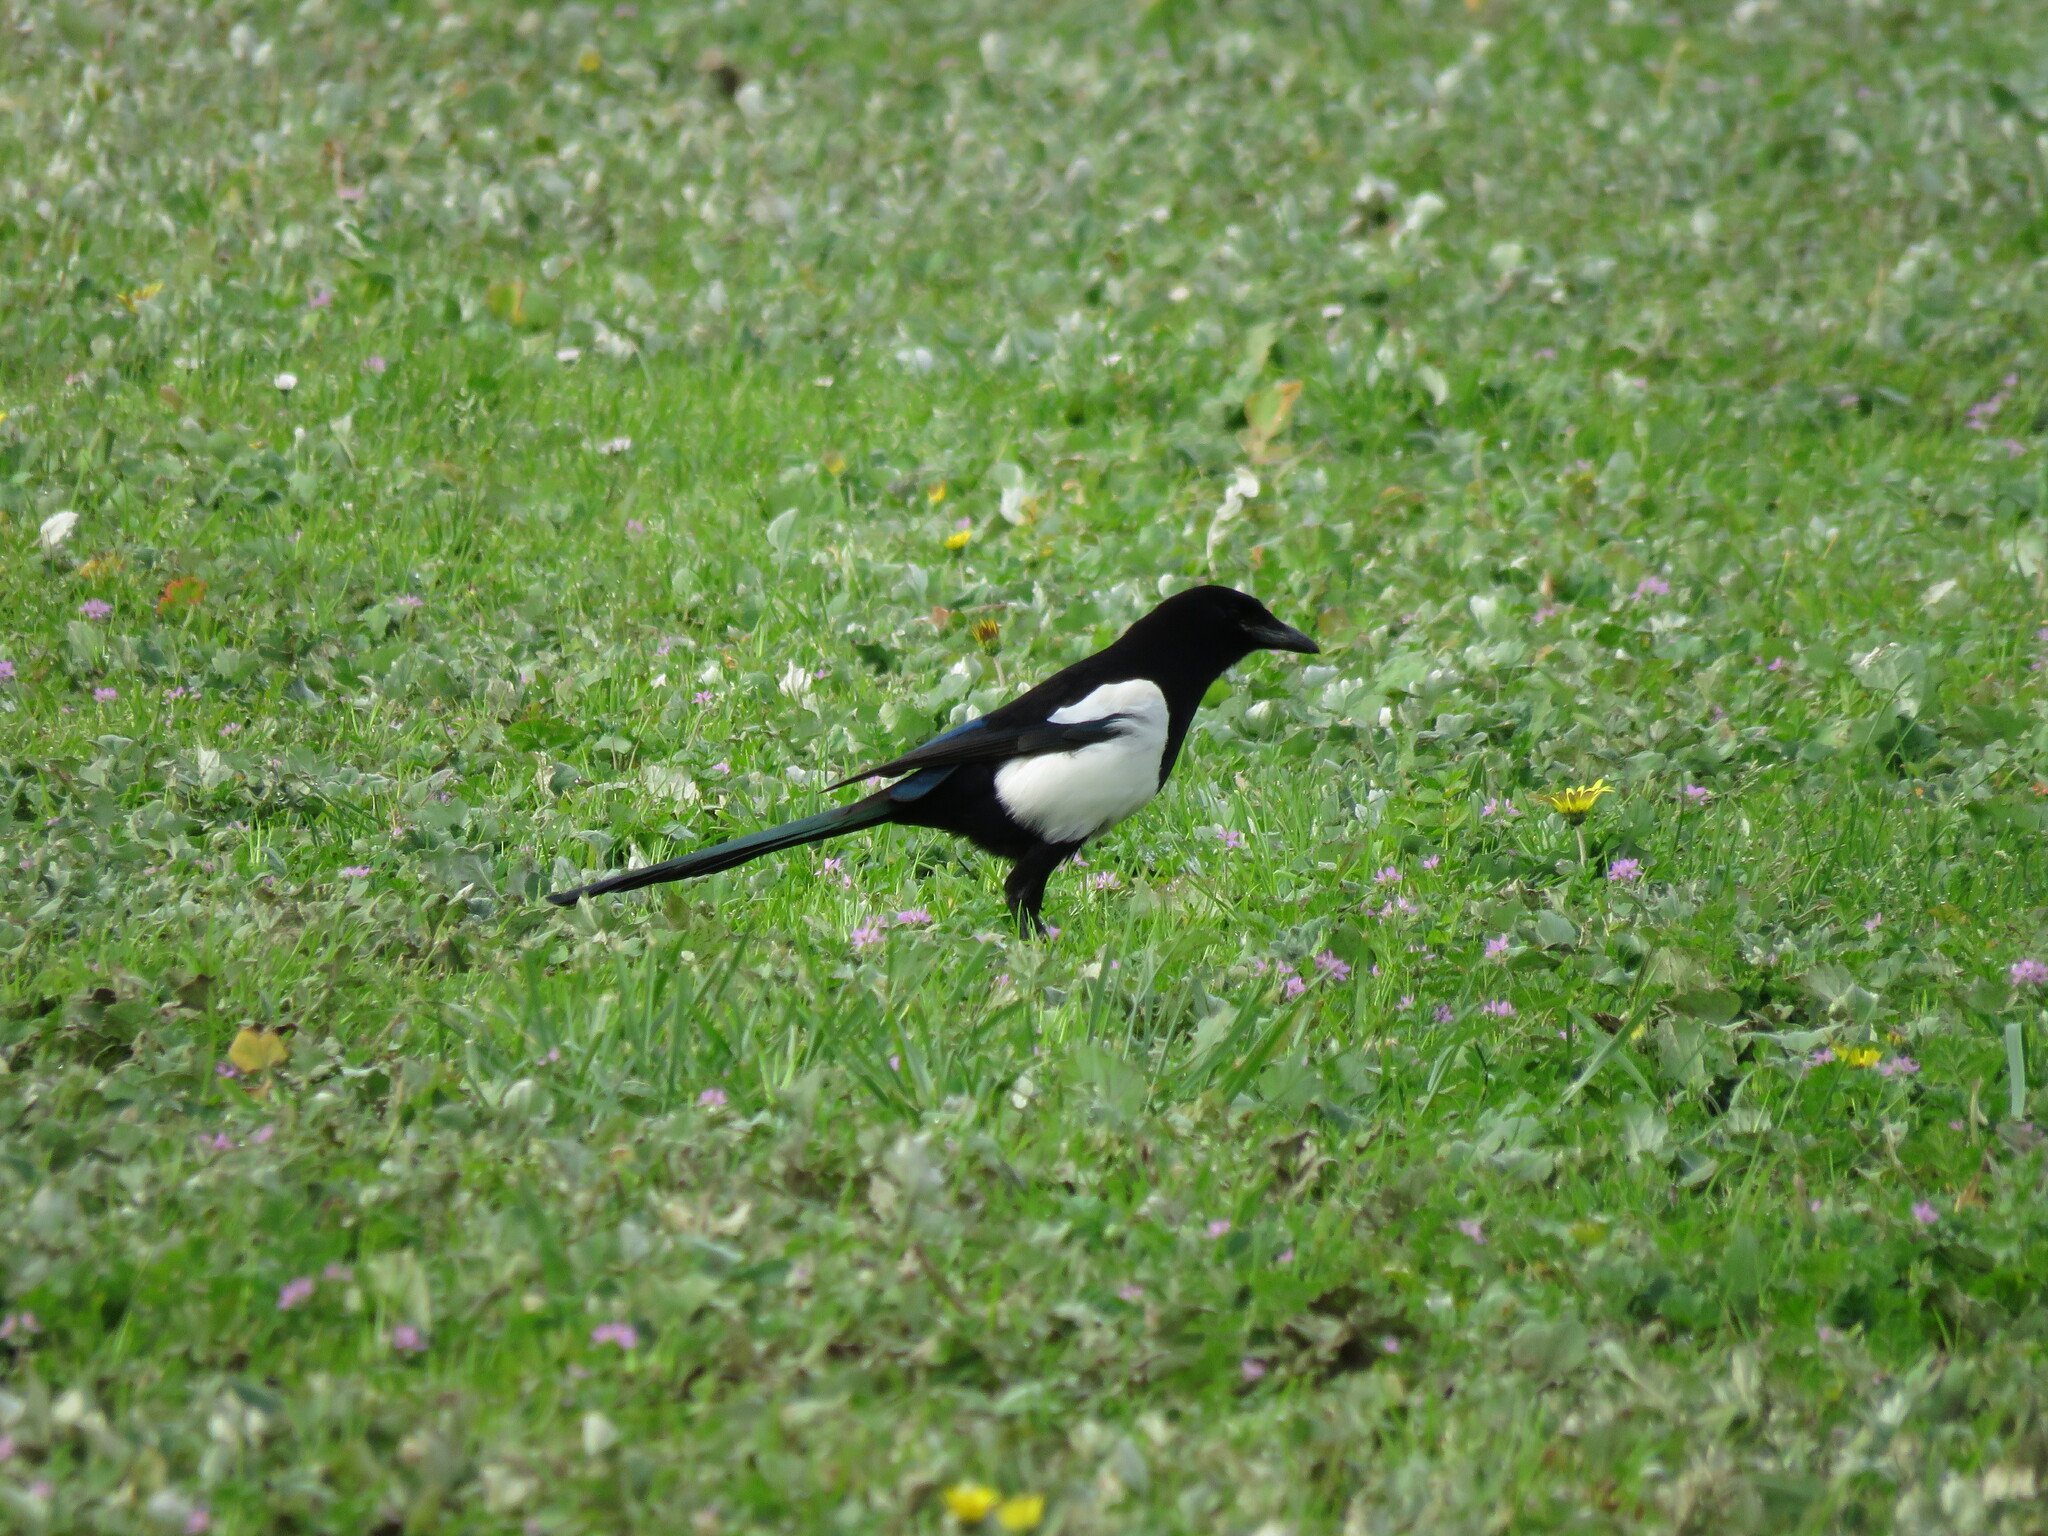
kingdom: Animalia
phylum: Chordata
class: Aves
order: Passeriformes
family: Corvidae
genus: Pica
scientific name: Pica pica
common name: Eurasian magpie
